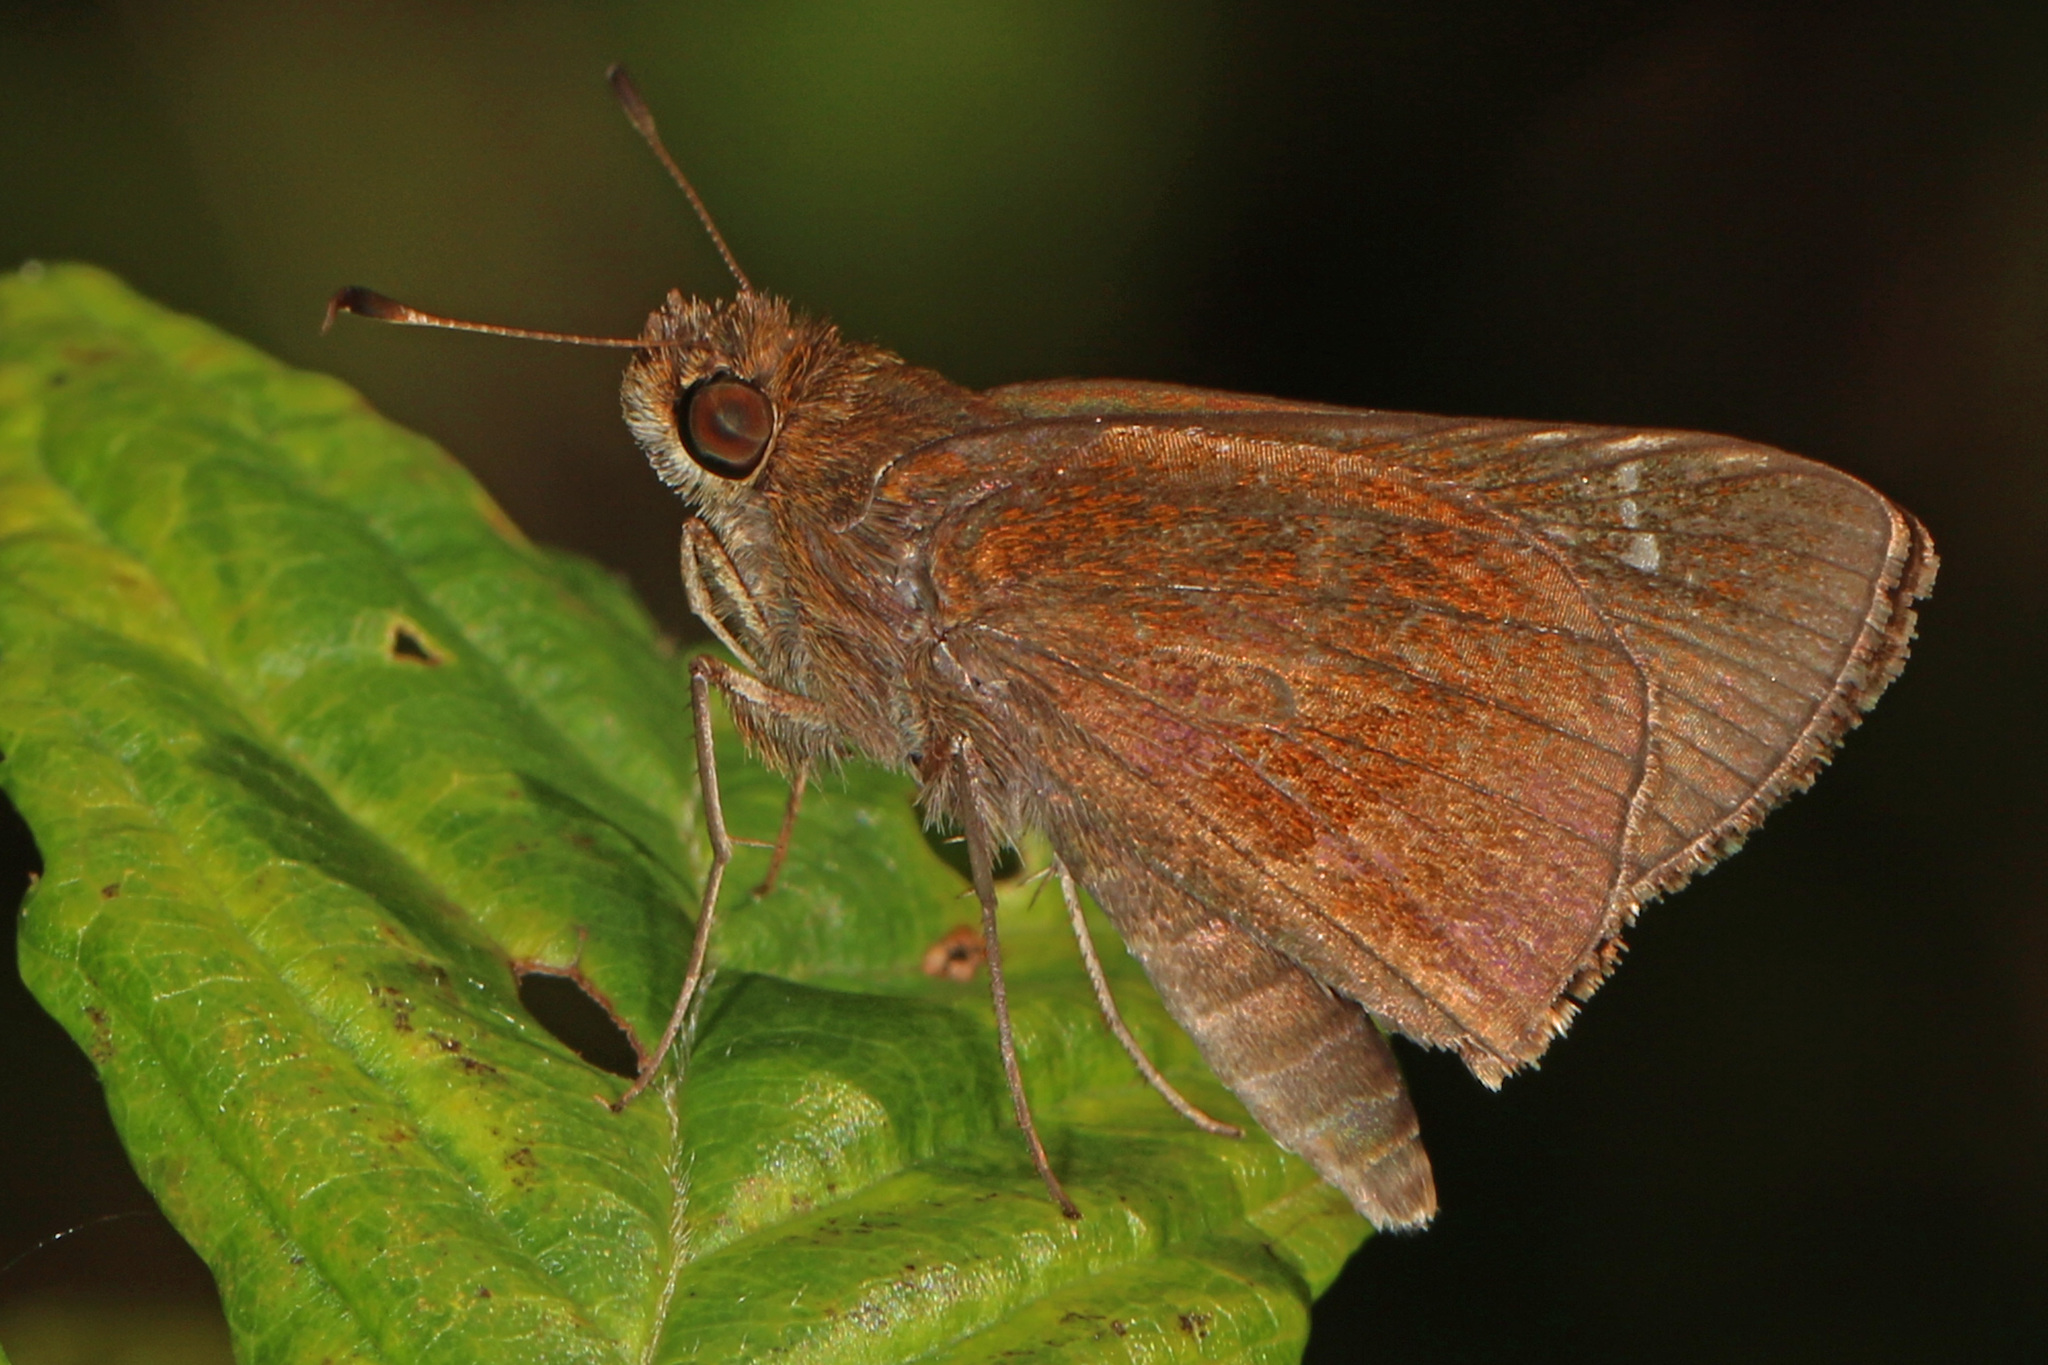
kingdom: Animalia
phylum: Arthropoda
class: Insecta
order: Lepidoptera
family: Hesperiidae
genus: Lerema
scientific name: Lerema accius
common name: Clouded skipper
